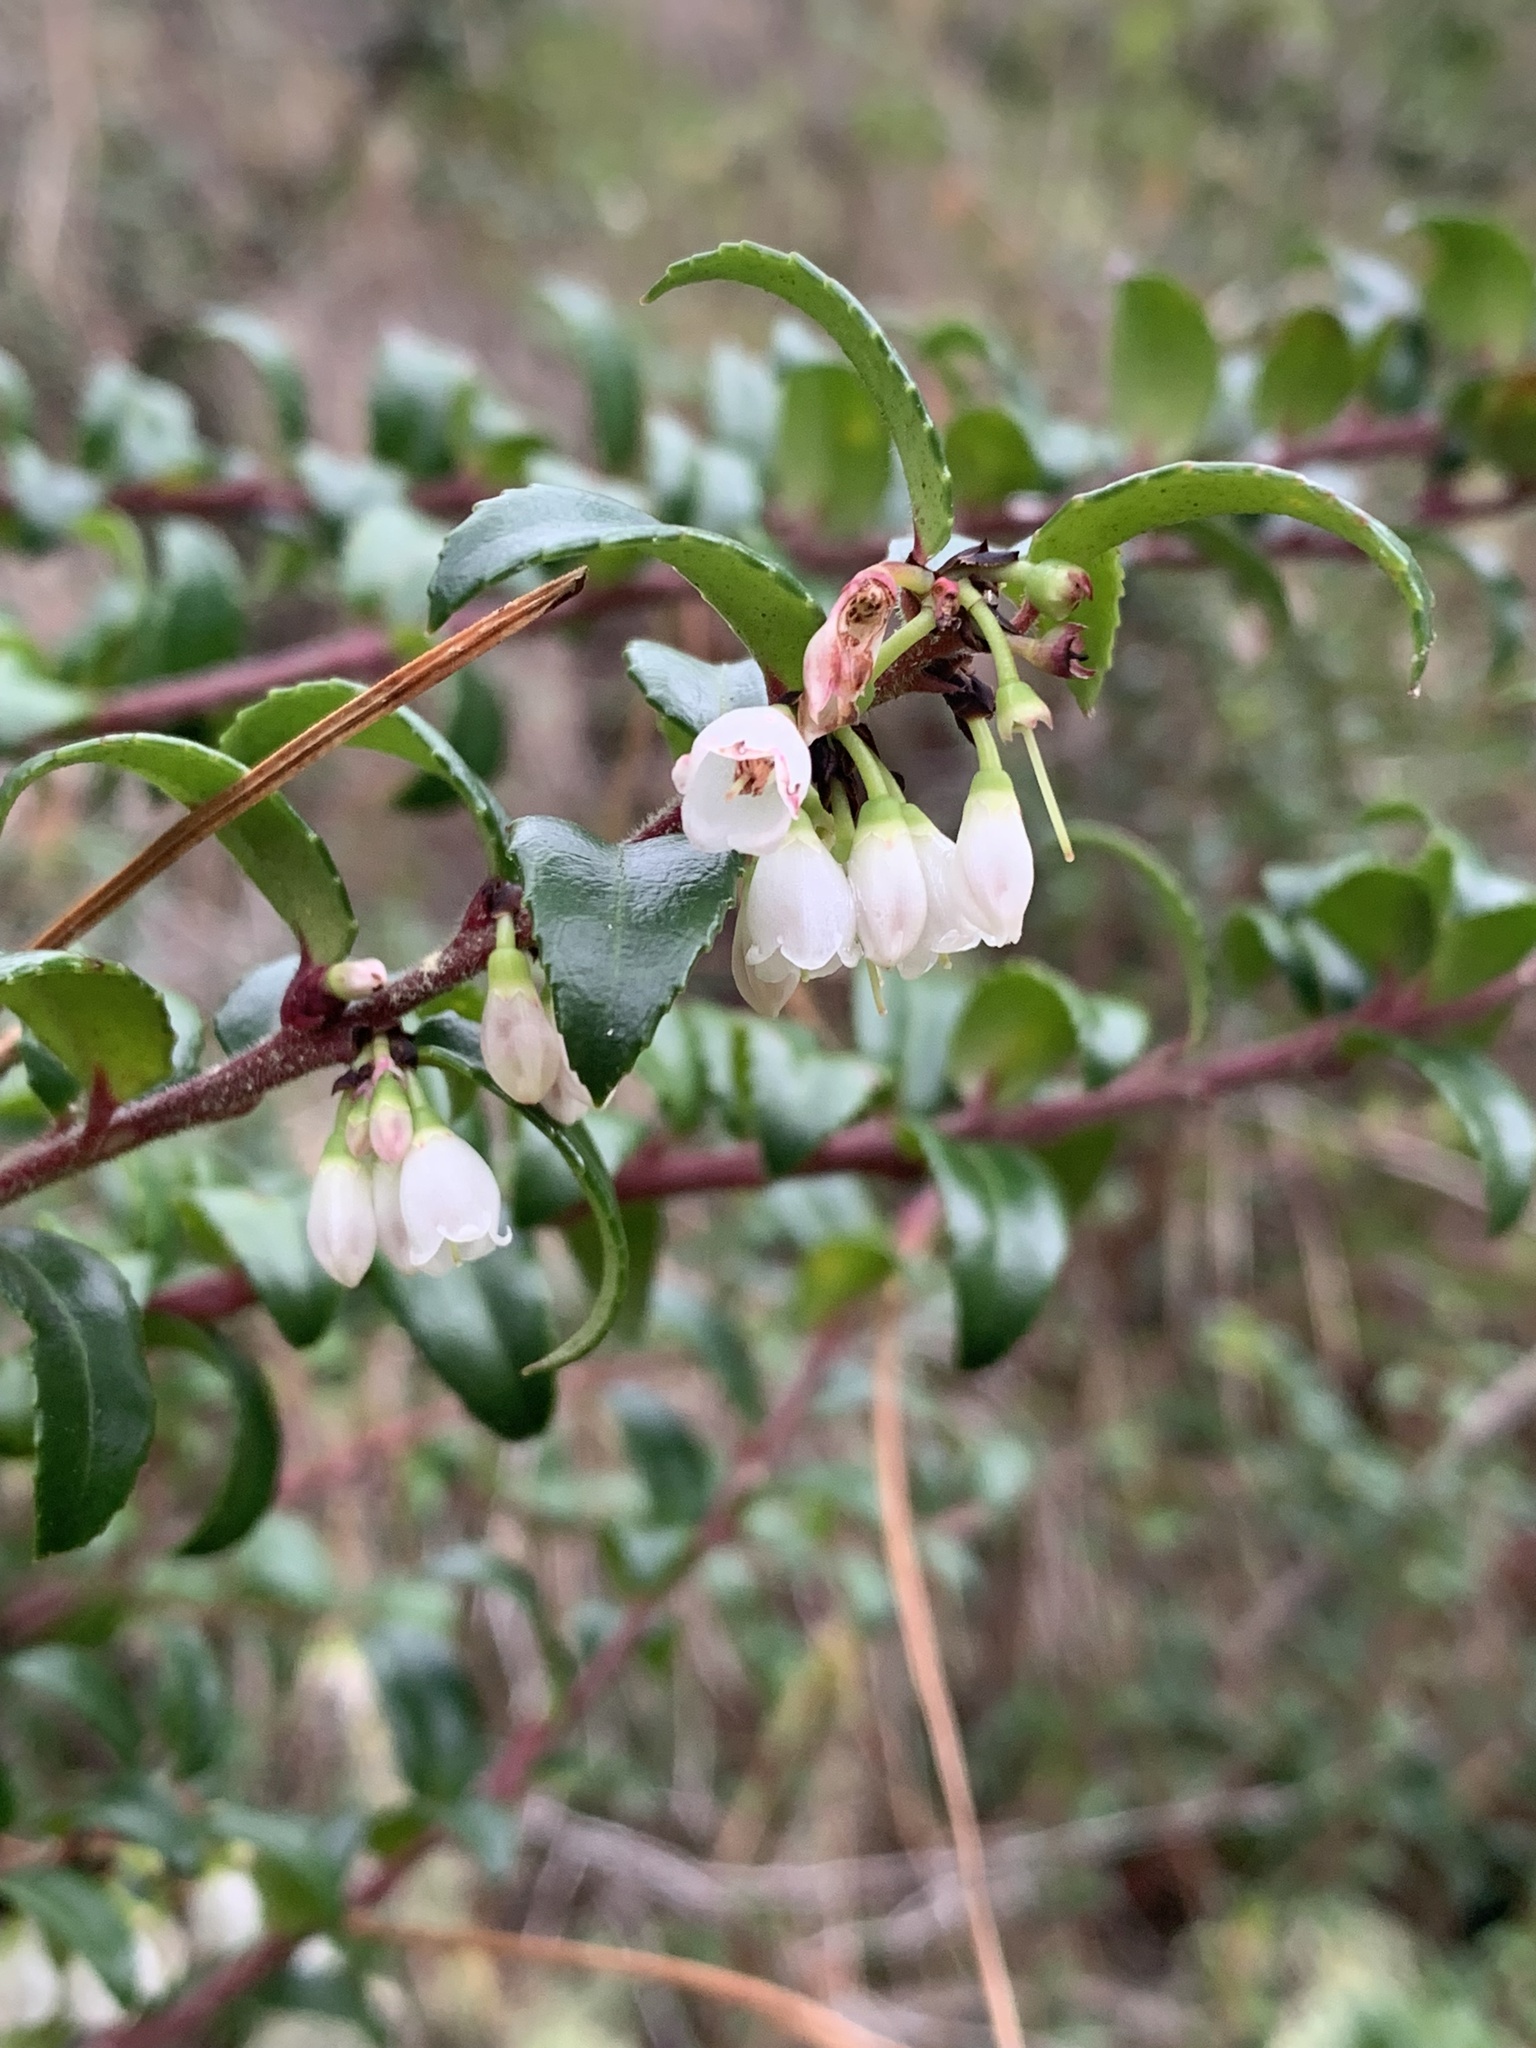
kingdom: Plantae
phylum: Tracheophyta
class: Magnoliopsida
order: Ericales
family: Ericaceae
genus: Vaccinium
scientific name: Vaccinium ovatum
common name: California-huckleberry
